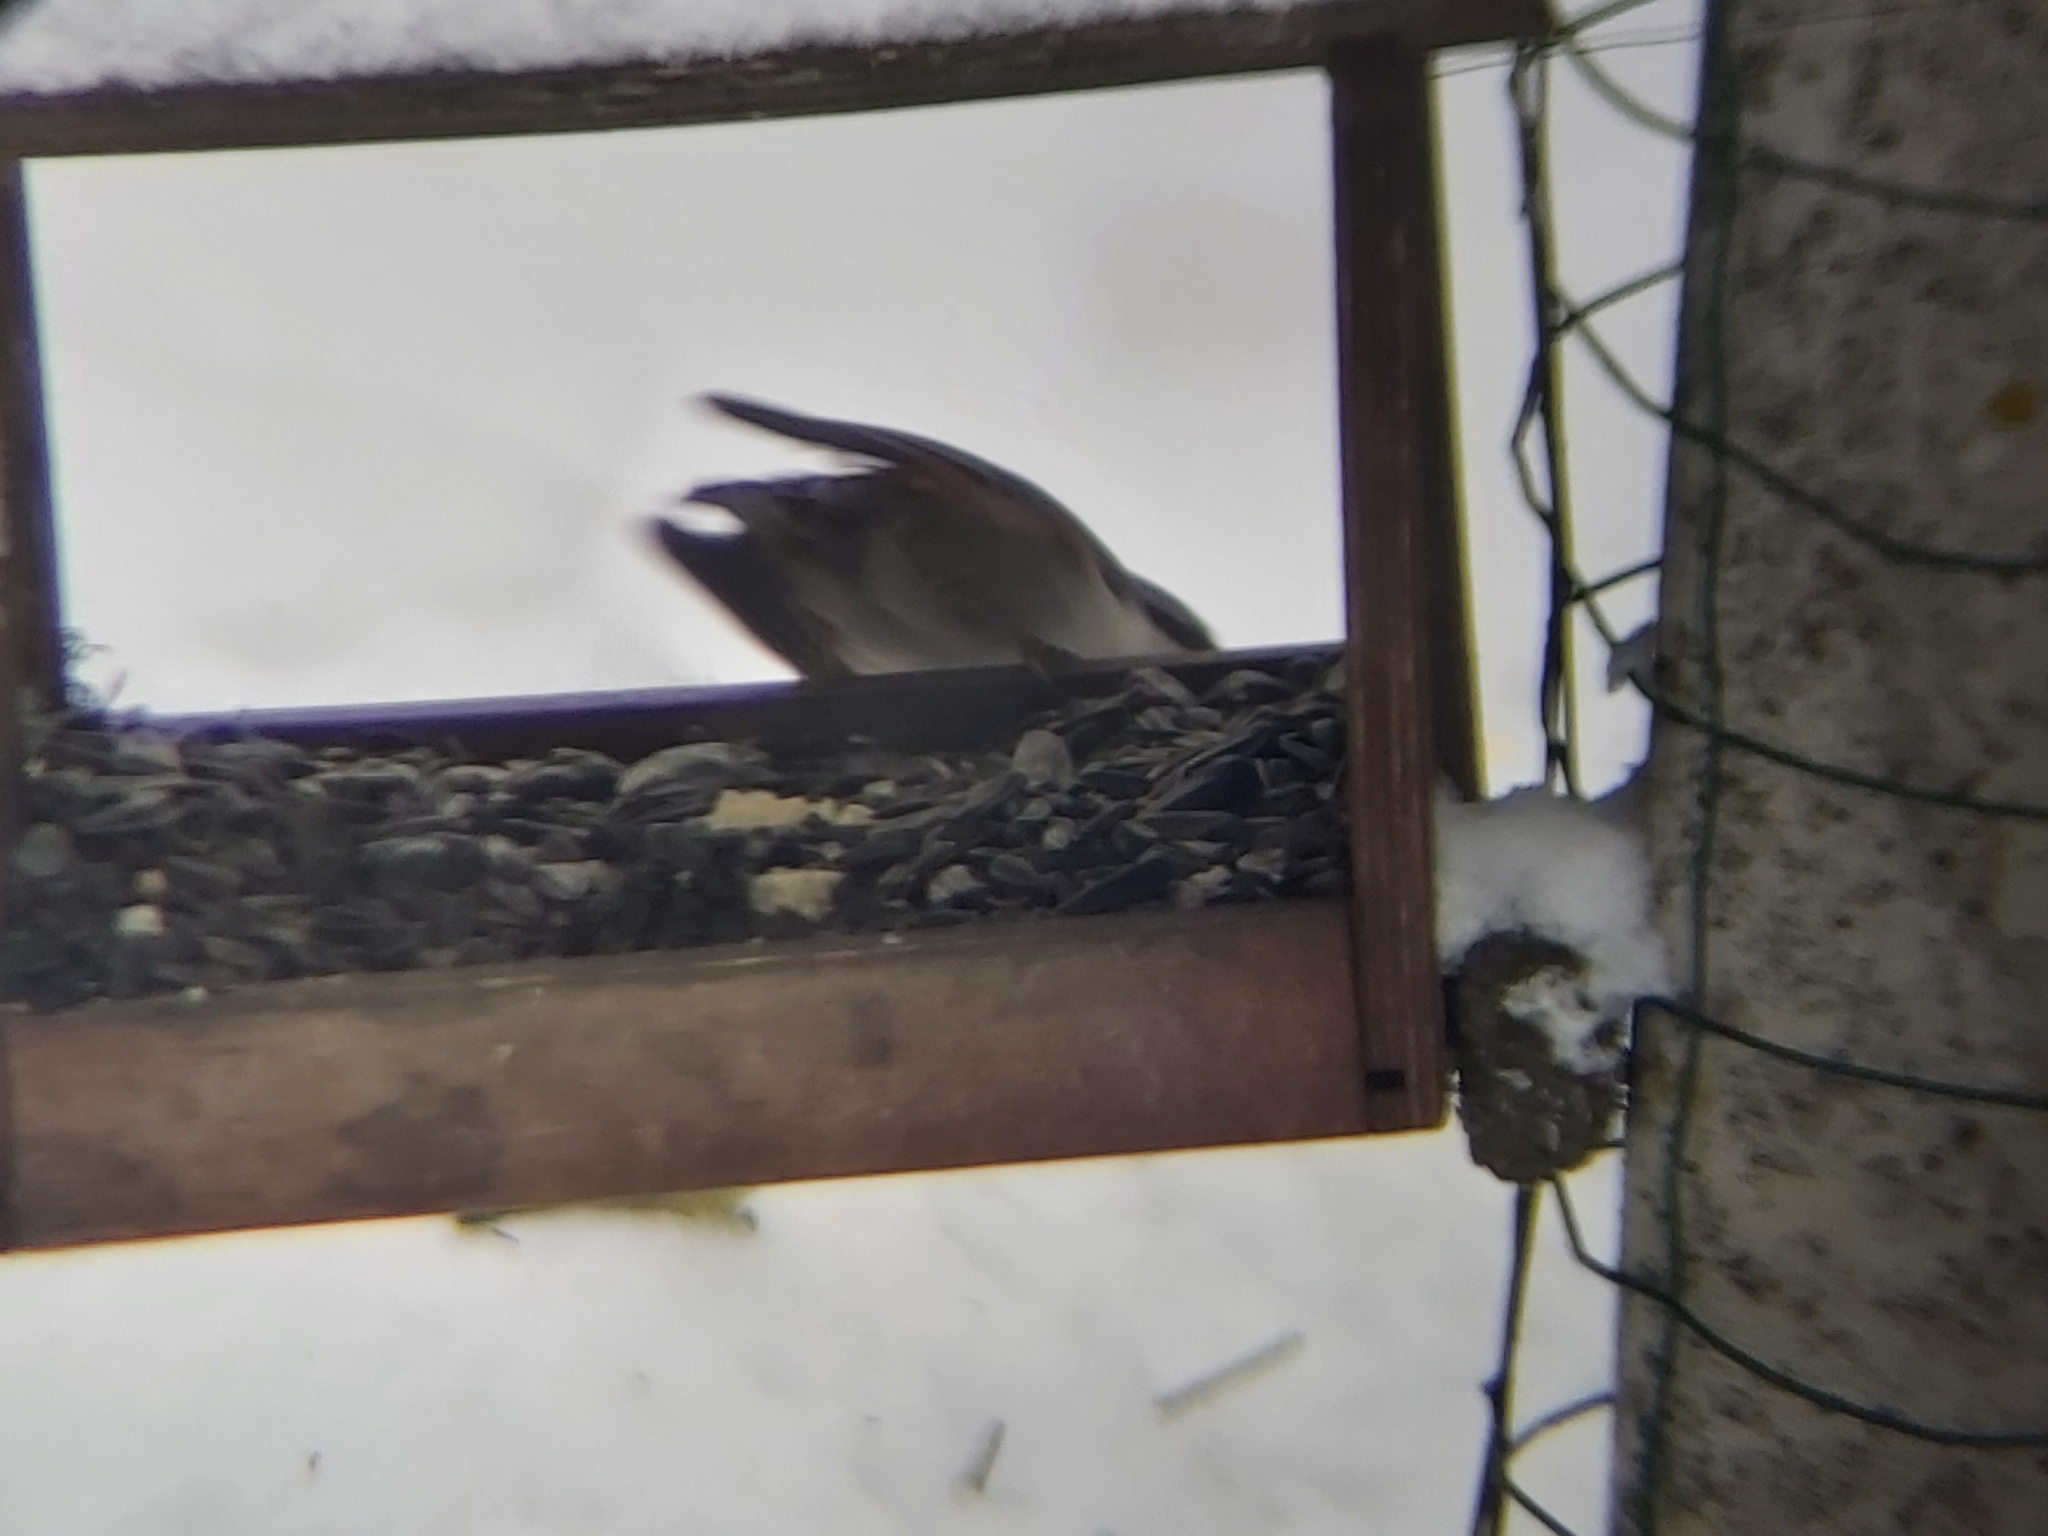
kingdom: Animalia
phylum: Chordata
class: Aves
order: Passeriformes
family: Paridae
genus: Poecile
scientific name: Poecile montanus
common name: Willow tit
